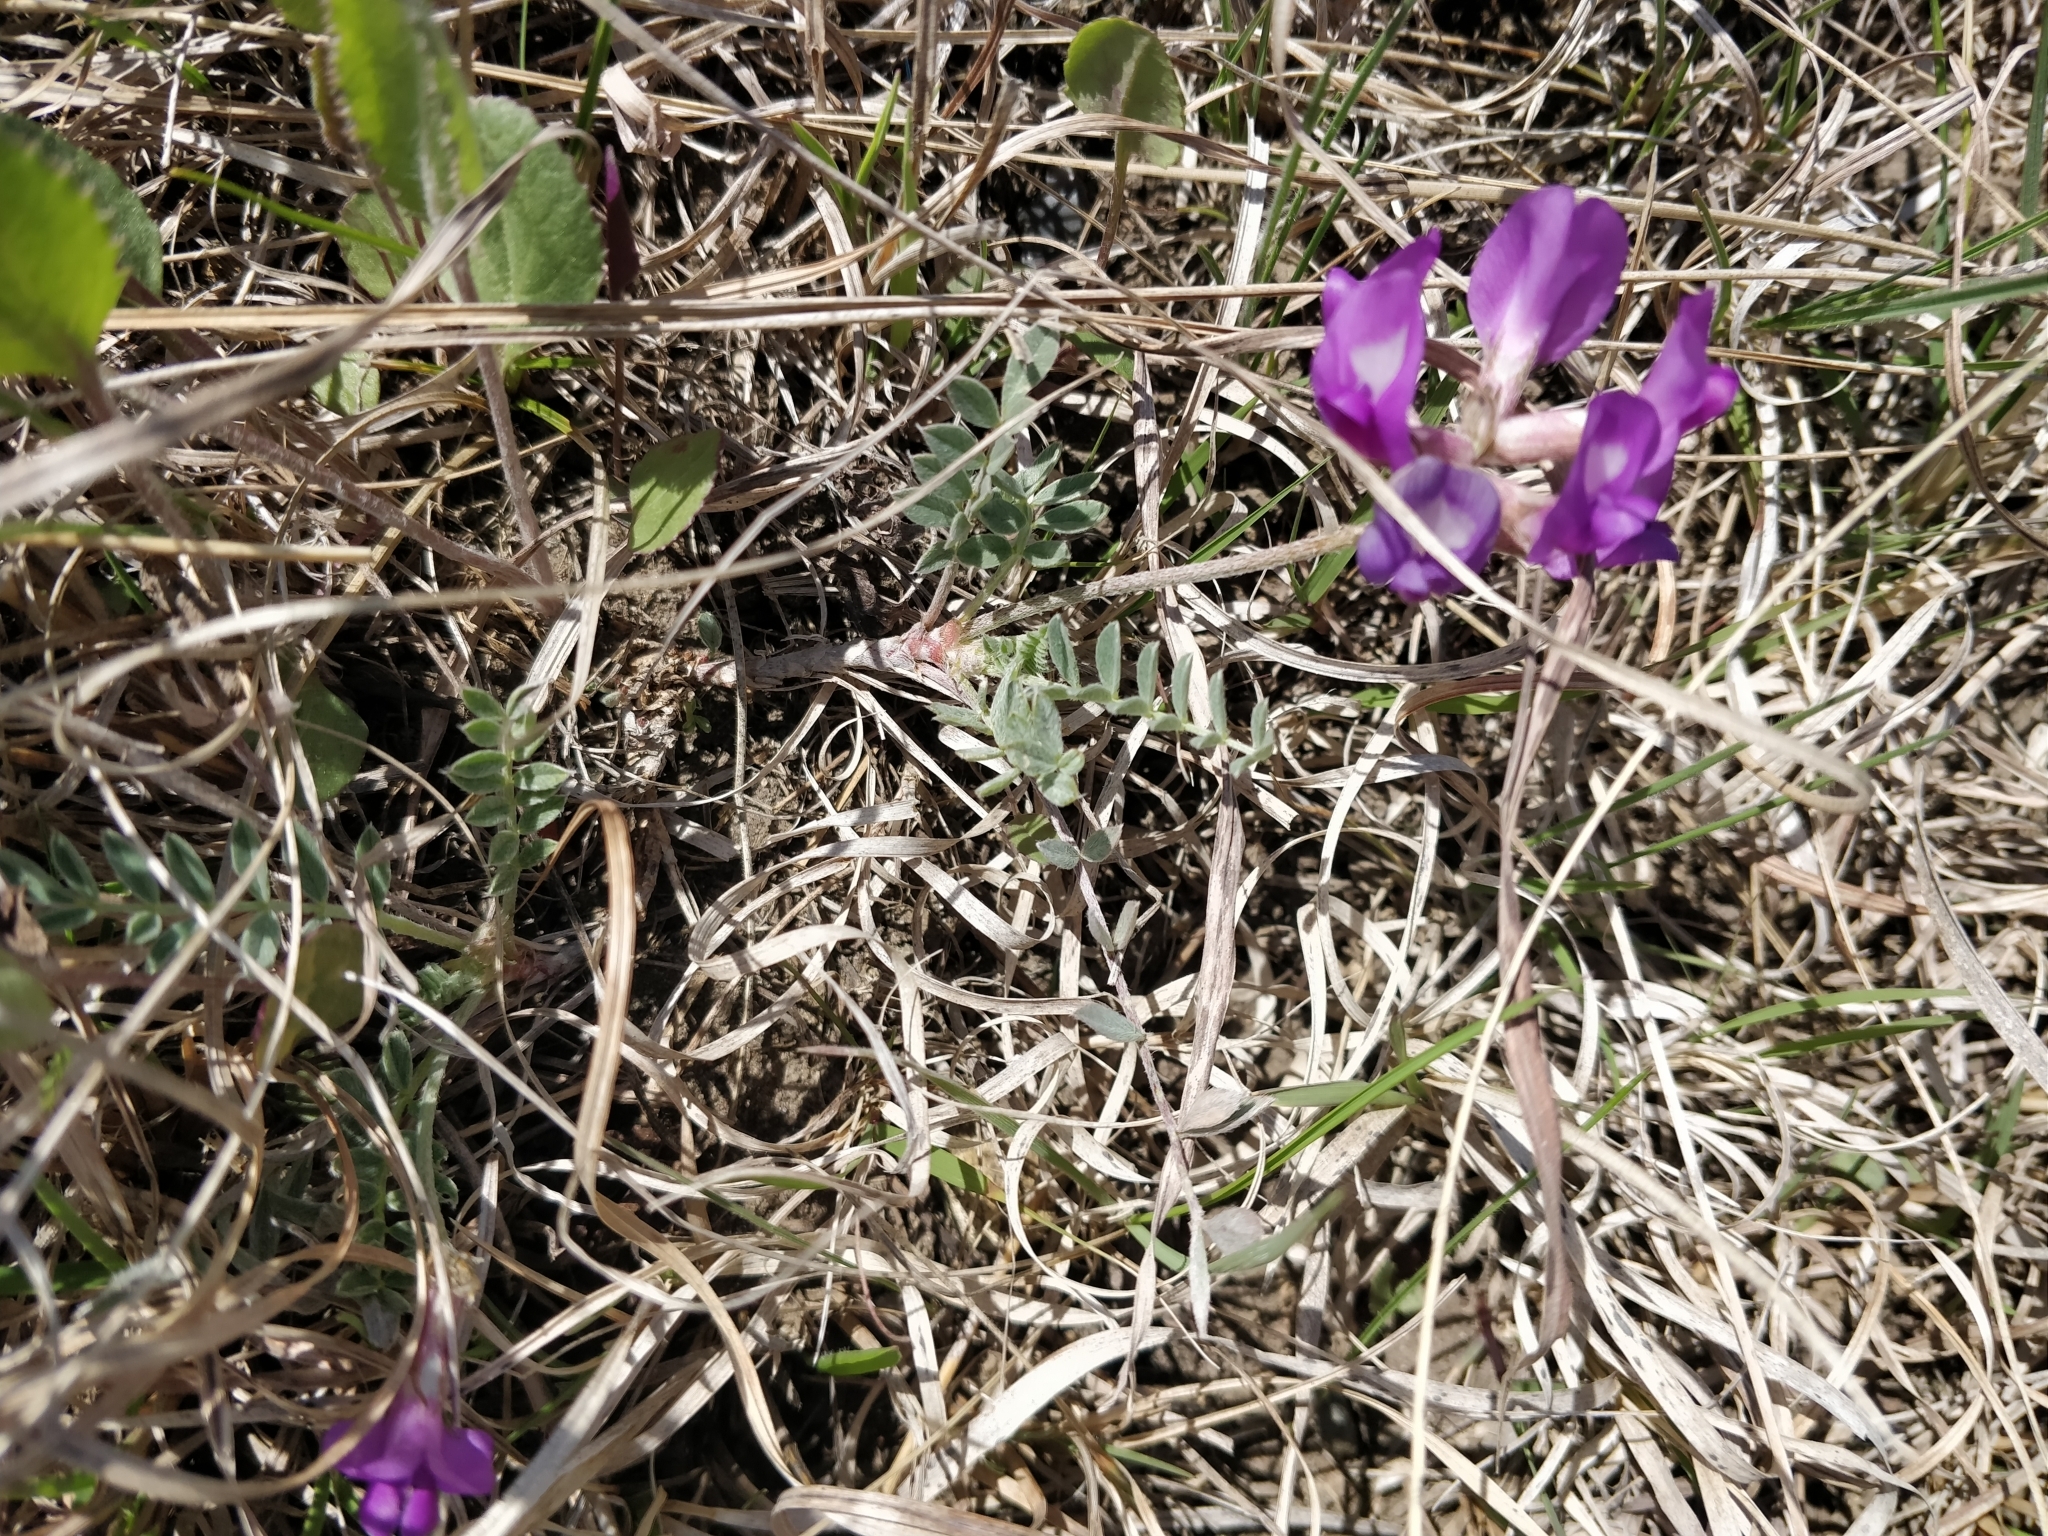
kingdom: Plantae
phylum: Tracheophyta
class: Magnoliopsida
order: Fabales
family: Fabaceae
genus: Astragalus
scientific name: Astragalus missouriensis
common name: Missouri milk-vetch
